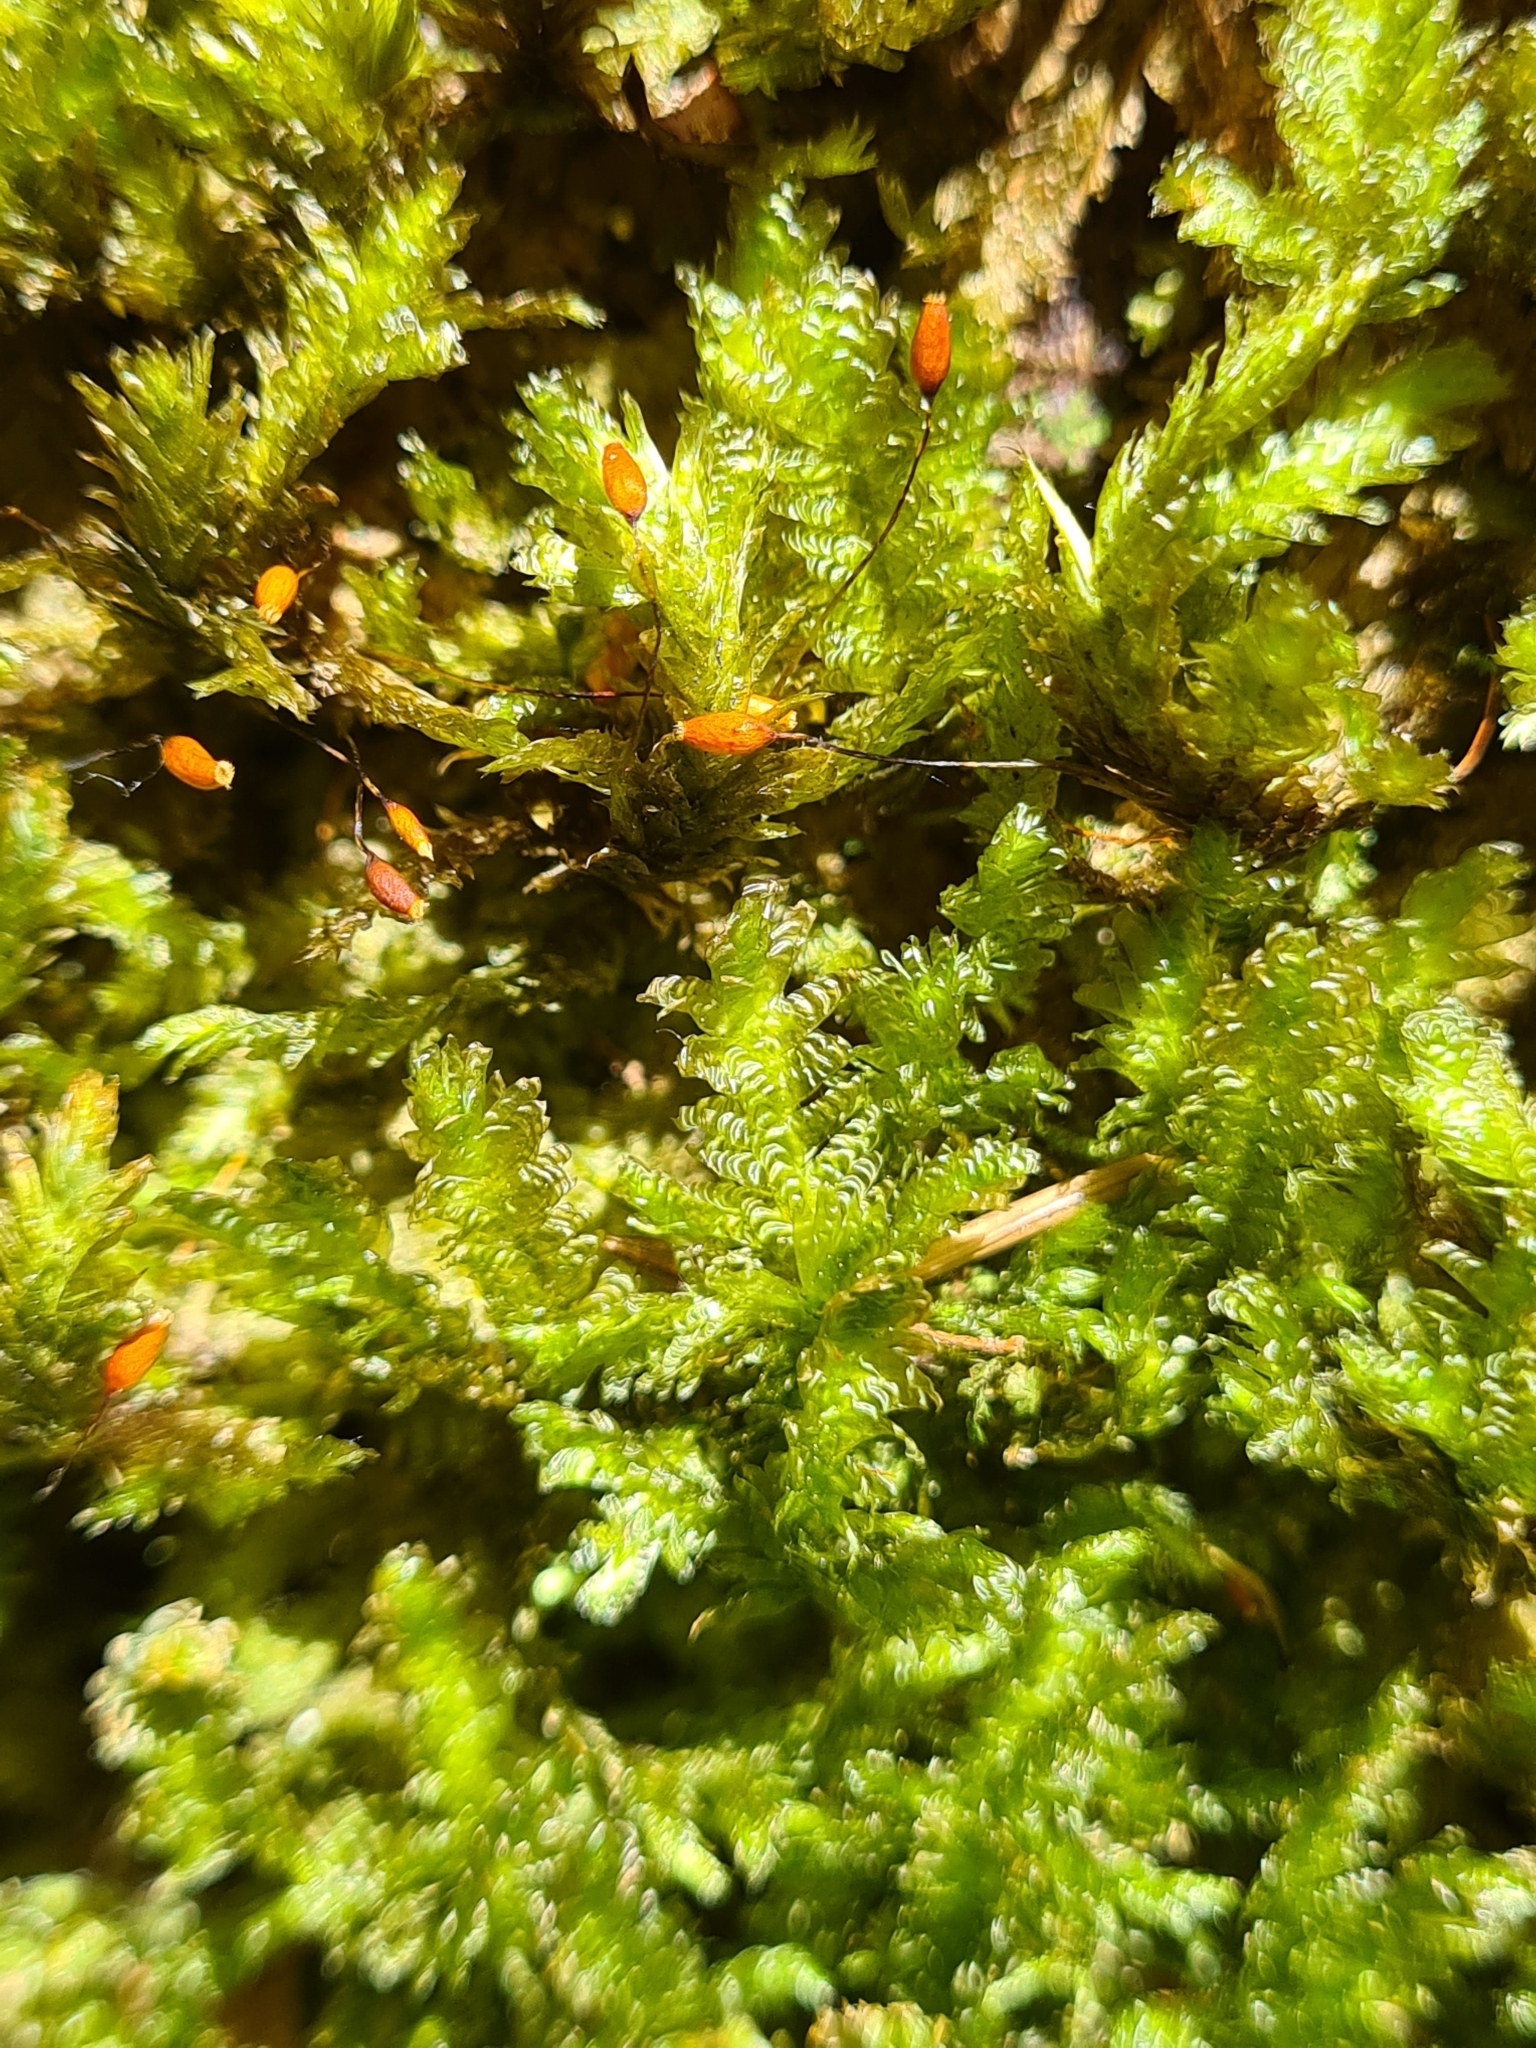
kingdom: Plantae
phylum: Bryophyta
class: Bryopsida
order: Hypnales
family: Neckeraceae
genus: Exsertotheca
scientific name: Exsertotheca crispa
